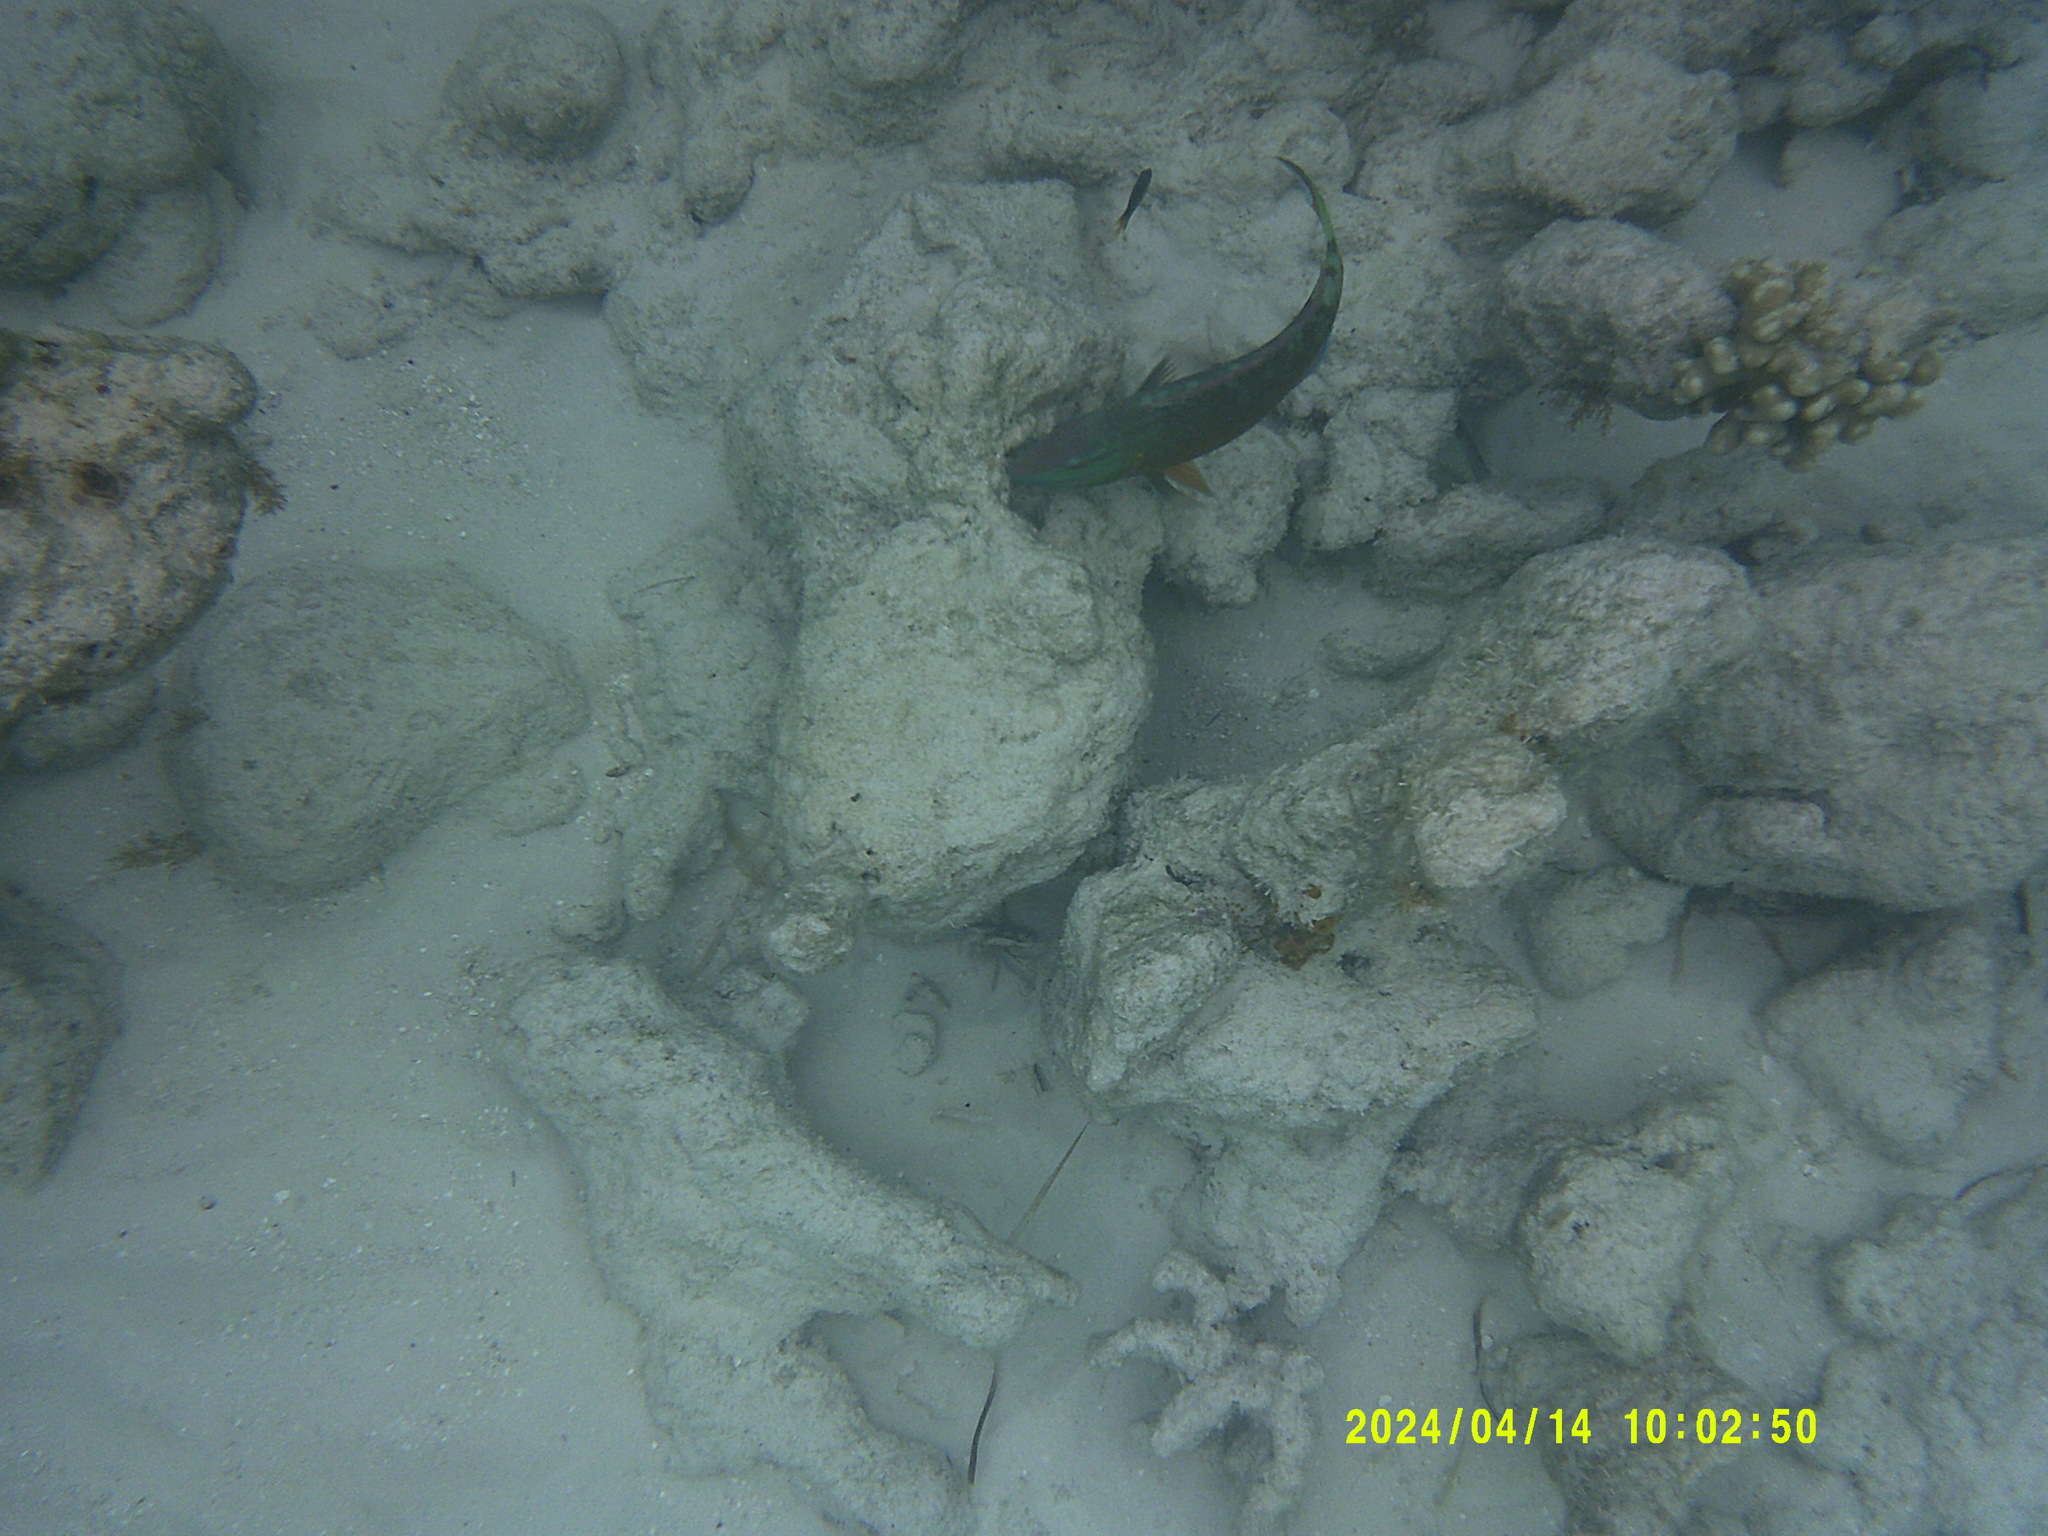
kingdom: Animalia
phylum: Chordata
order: Perciformes
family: Scaridae
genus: Sparisoma
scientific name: Sparisoma viride
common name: Stoplight parrotfish
